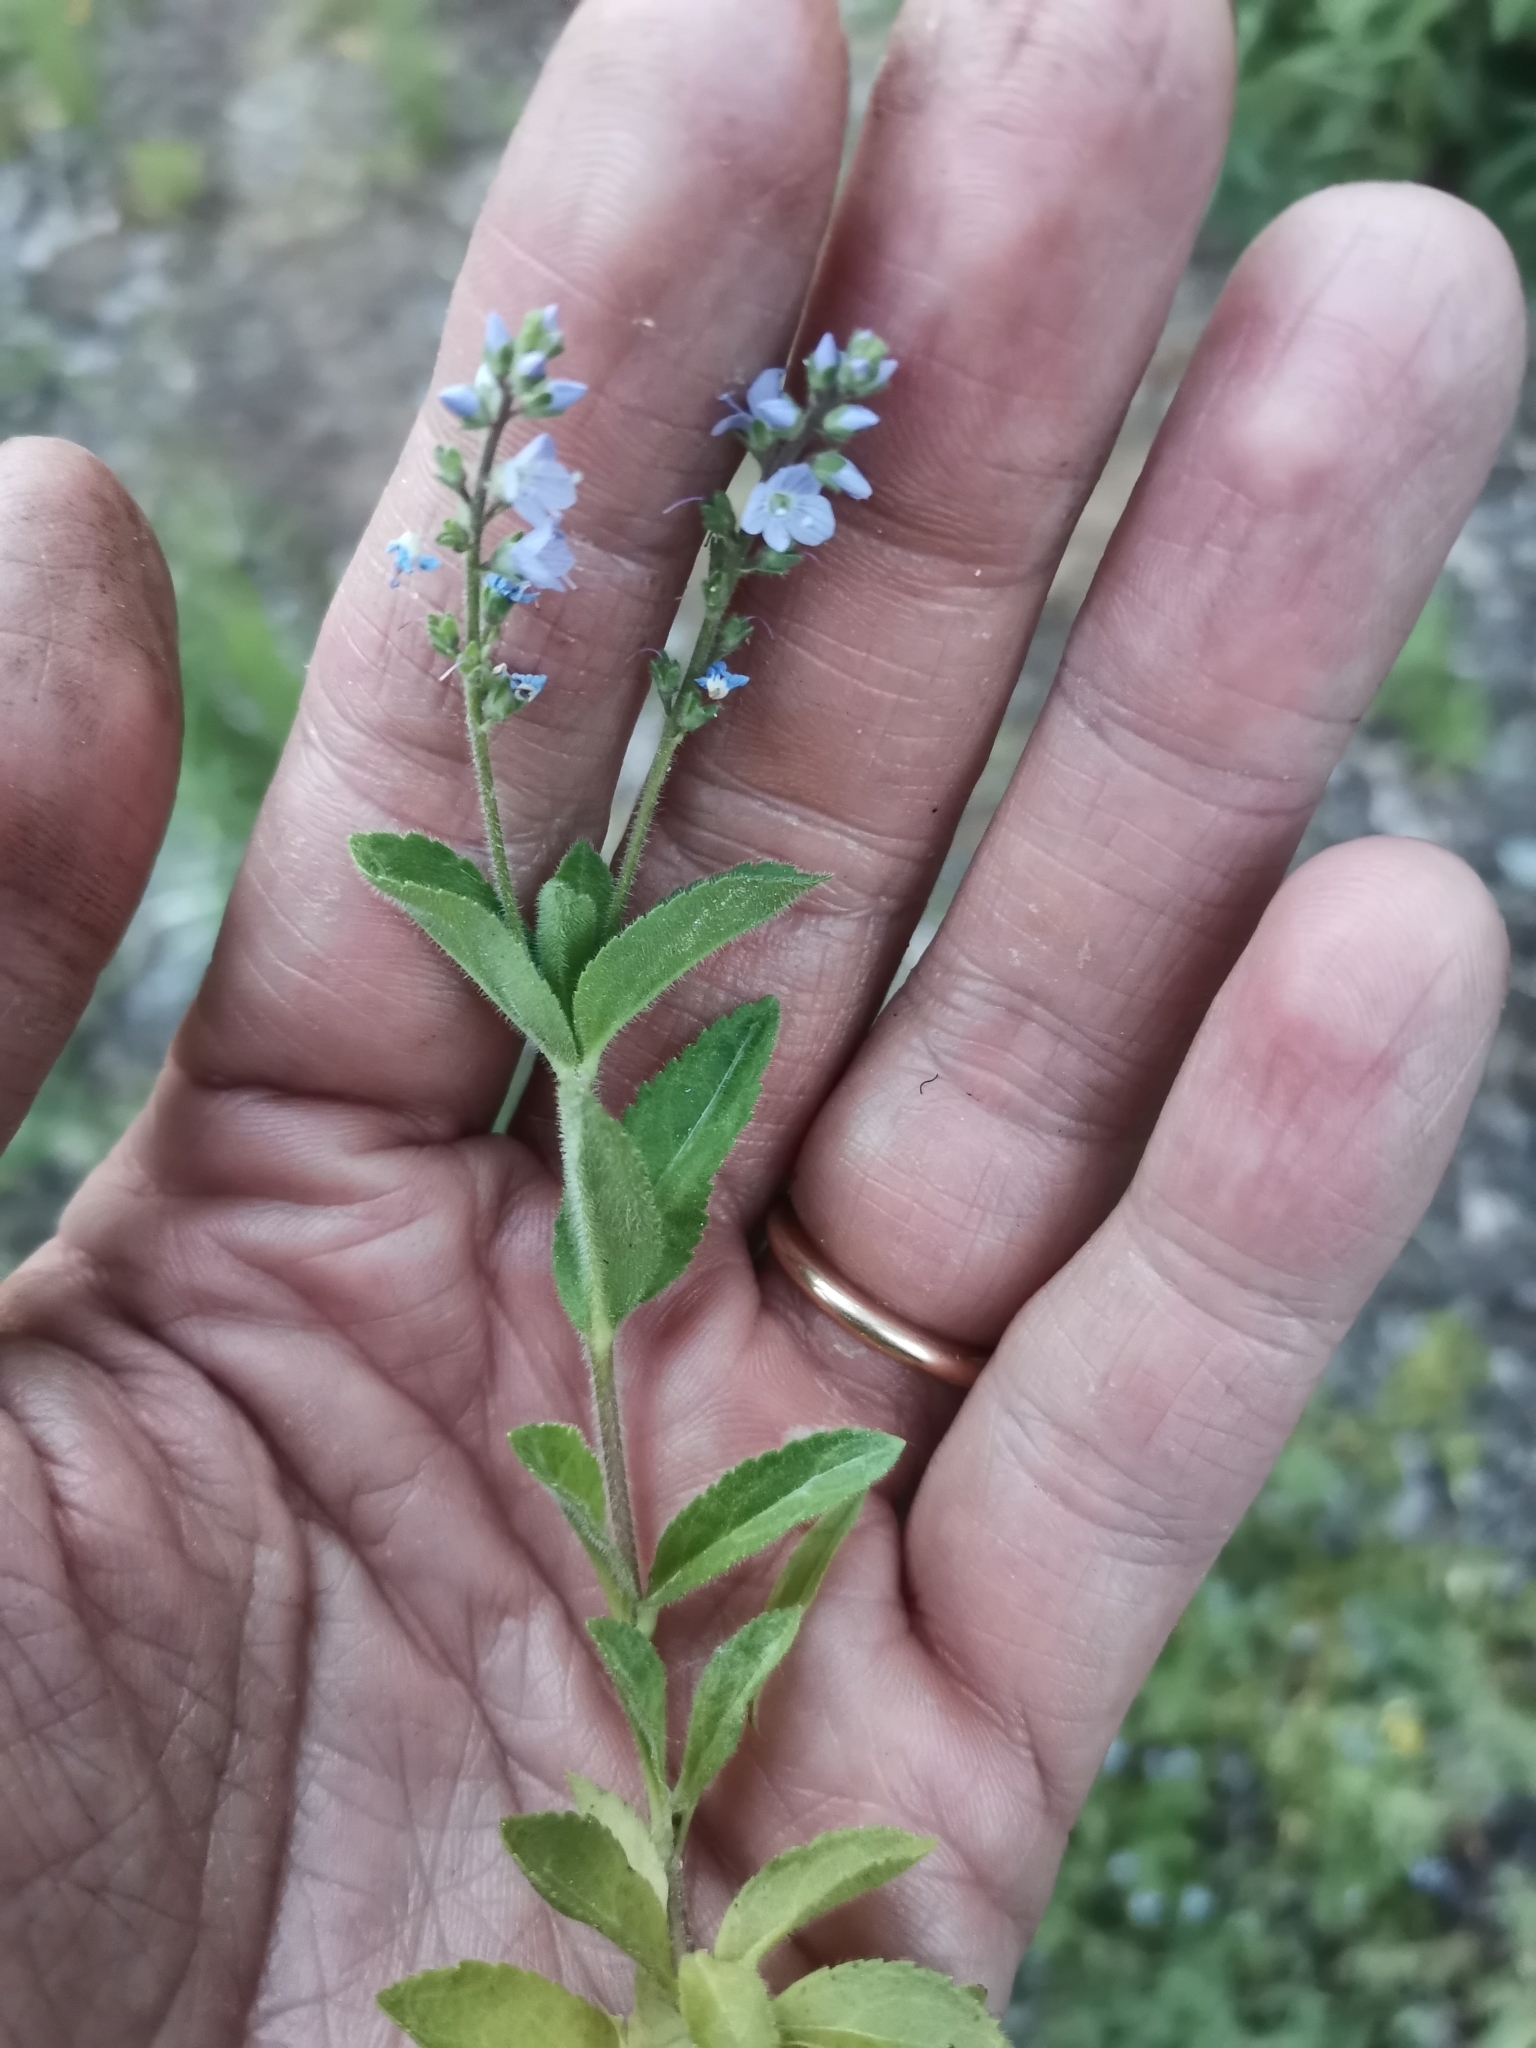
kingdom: Plantae
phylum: Tracheophyta
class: Magnoliopsida
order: Lamiales
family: Plantaginaceae
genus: Veronica
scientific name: Veronica officinalis
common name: Common speedwell
